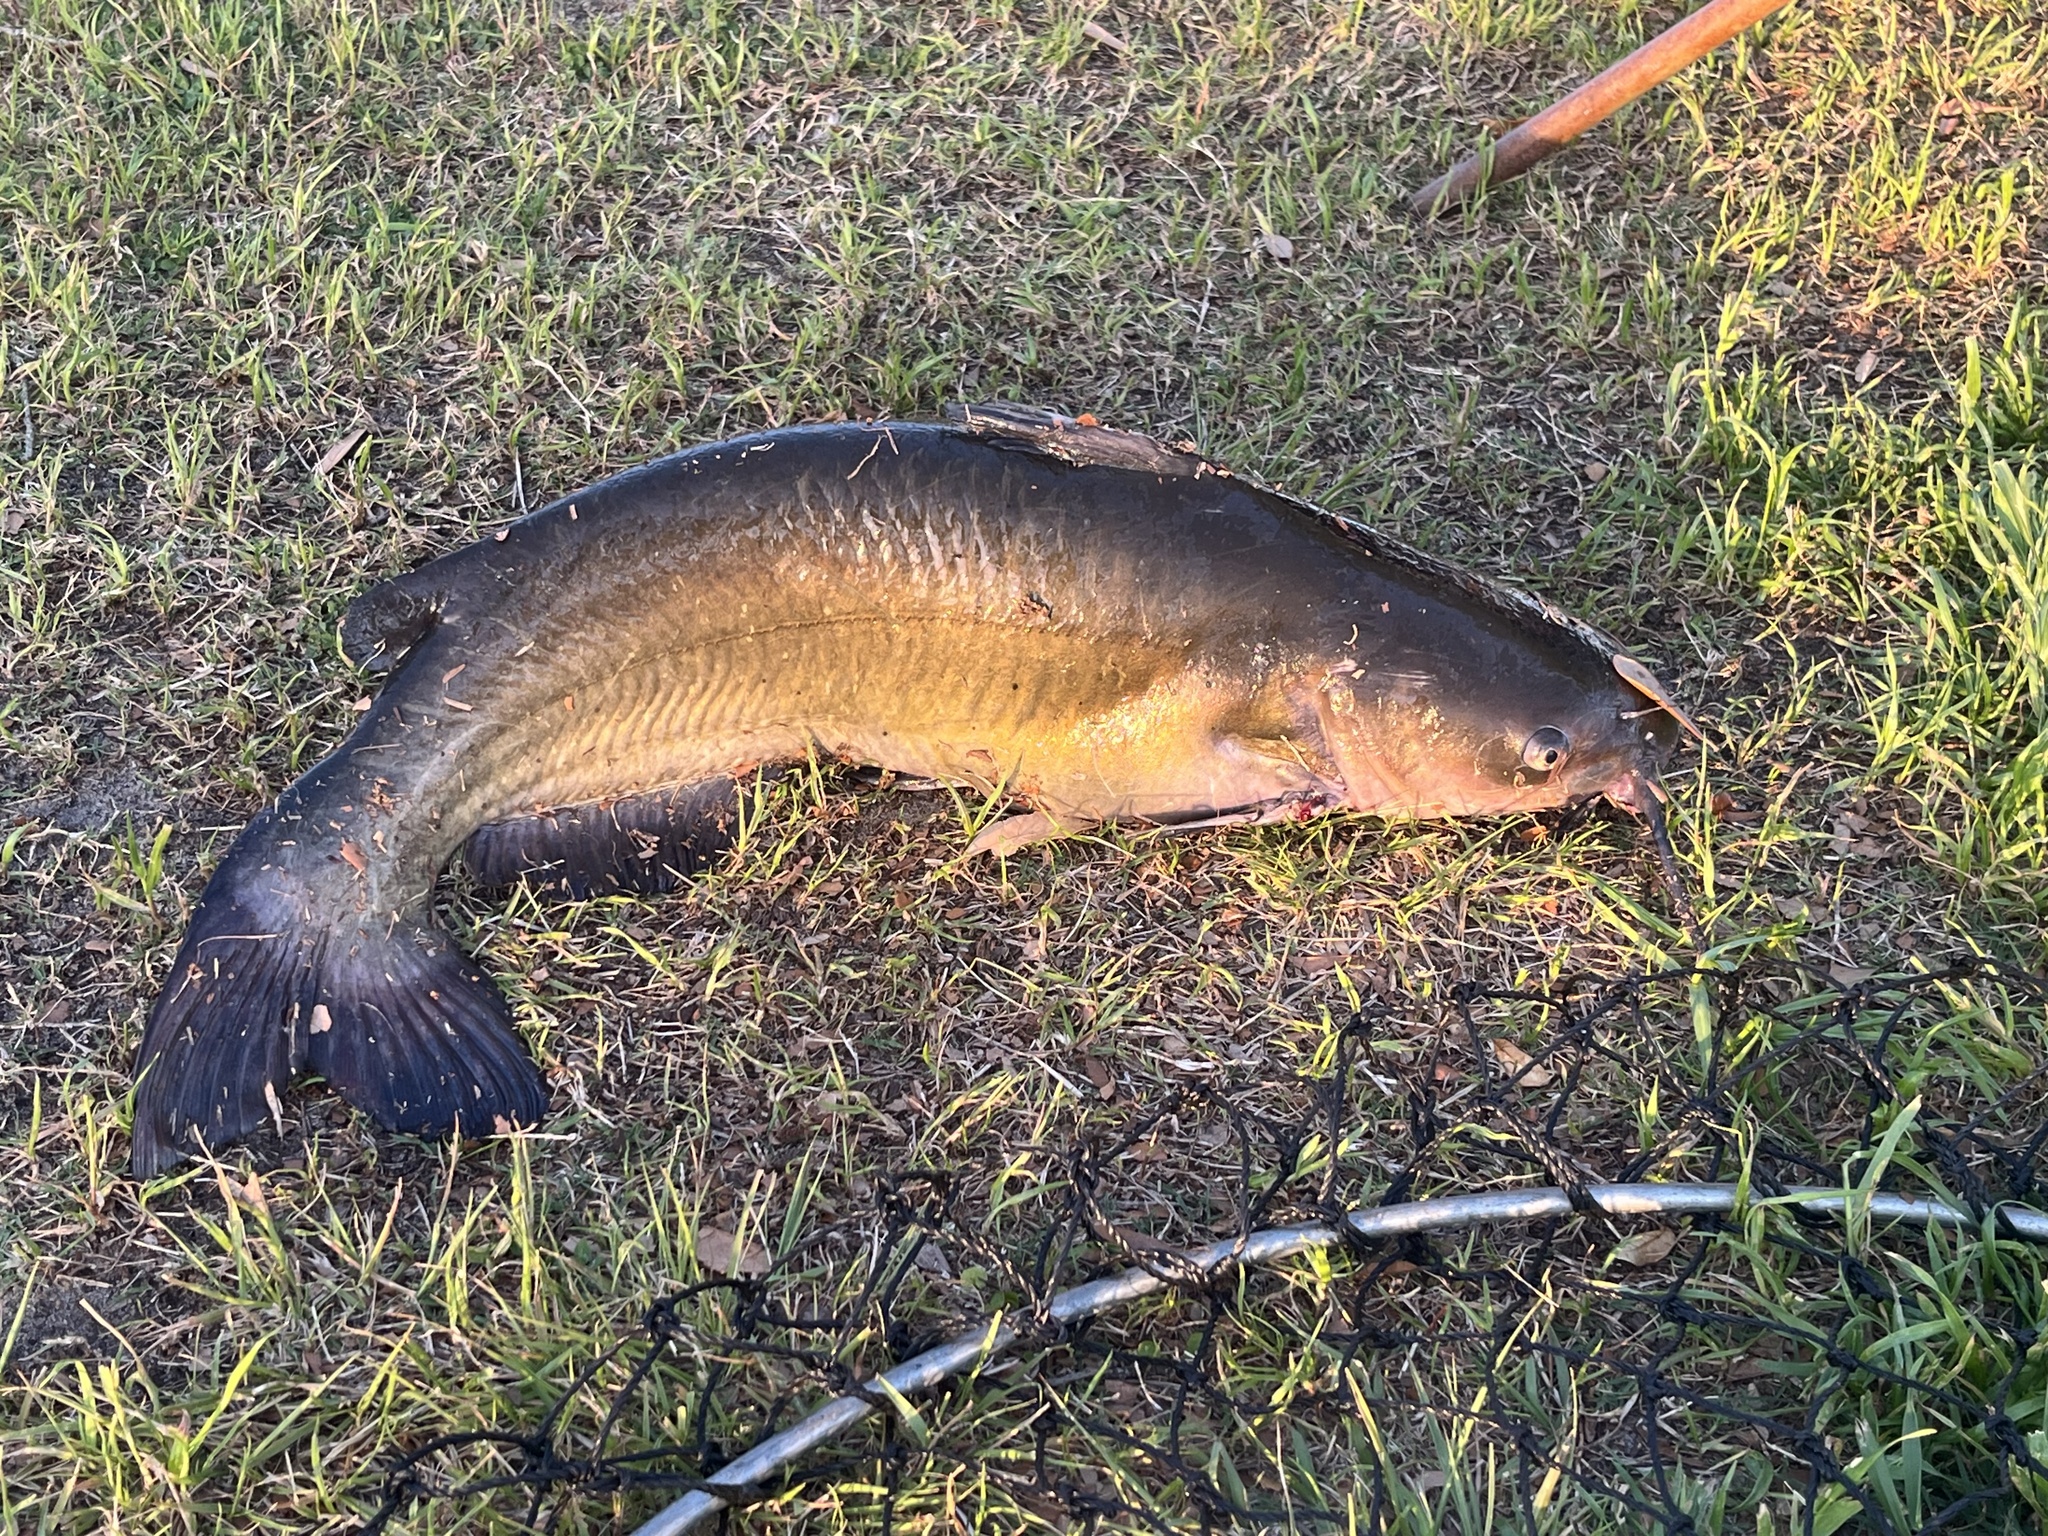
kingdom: Animalia
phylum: Chordata
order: Siluriformes
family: Ictaluridae
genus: Ictalurus
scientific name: Ictalurus punctatus
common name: Channel catfish
